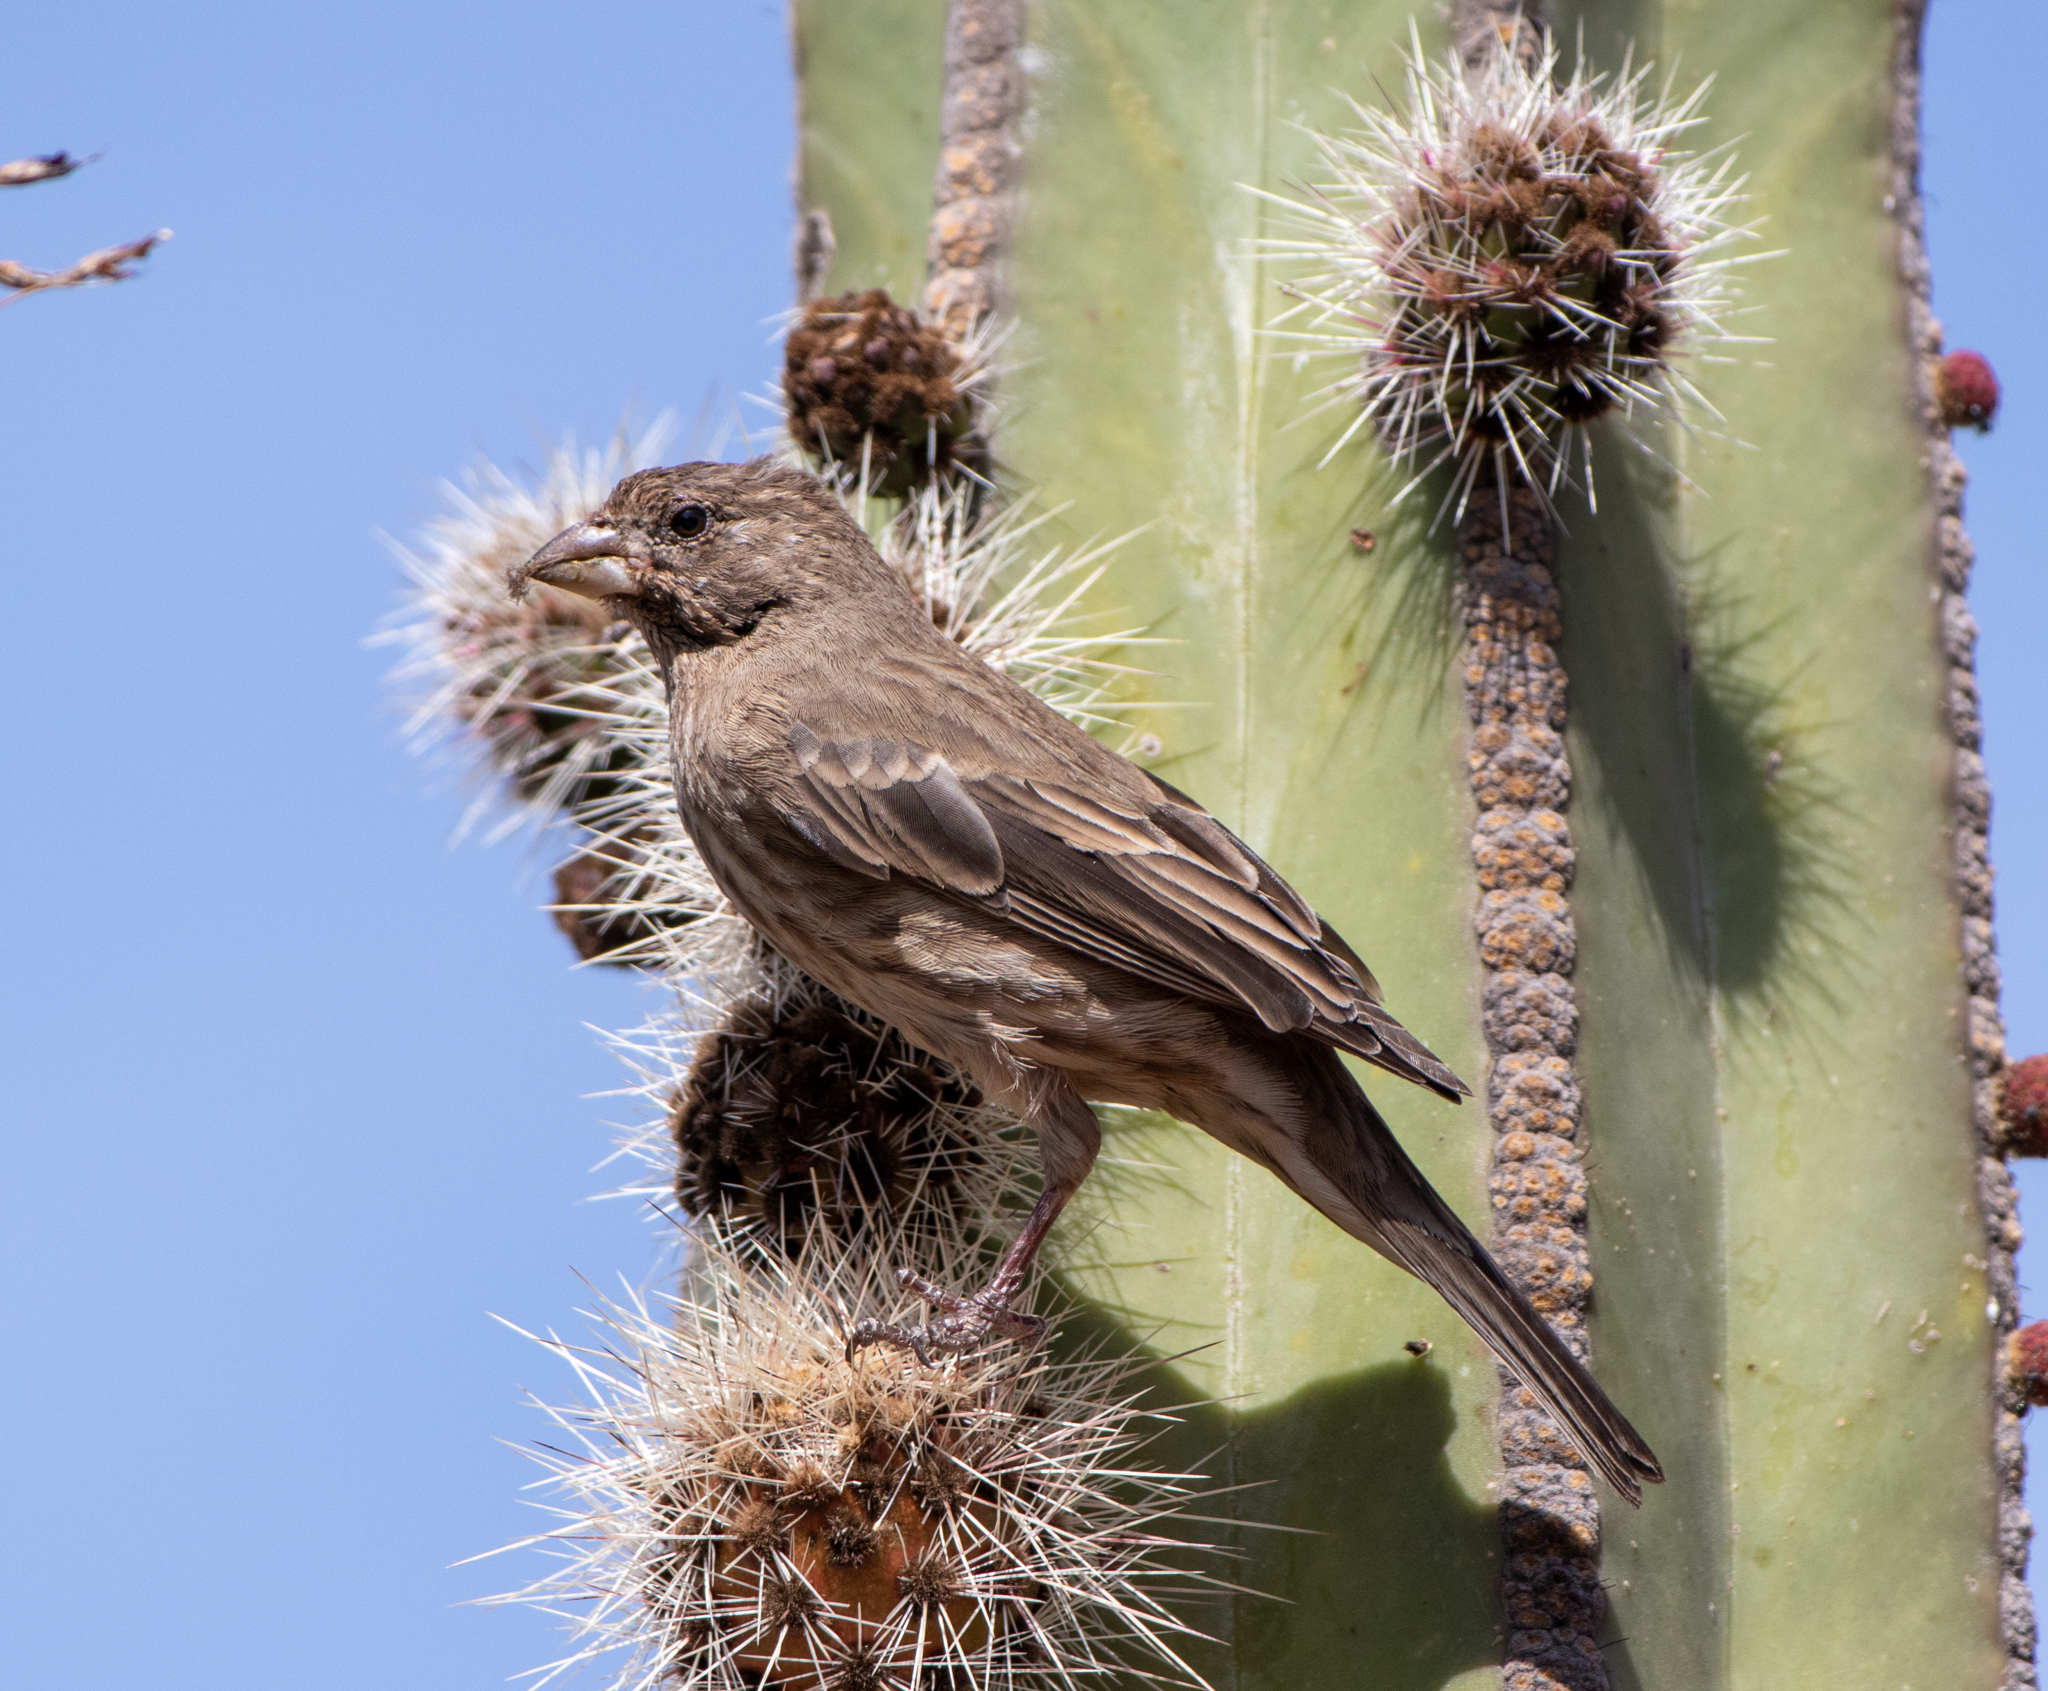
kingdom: Animalia
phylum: Chordata
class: Aves
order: Passeriformes
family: Fringillidae
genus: Haemorhous
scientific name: Haemorhous mexicanus
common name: House finch
